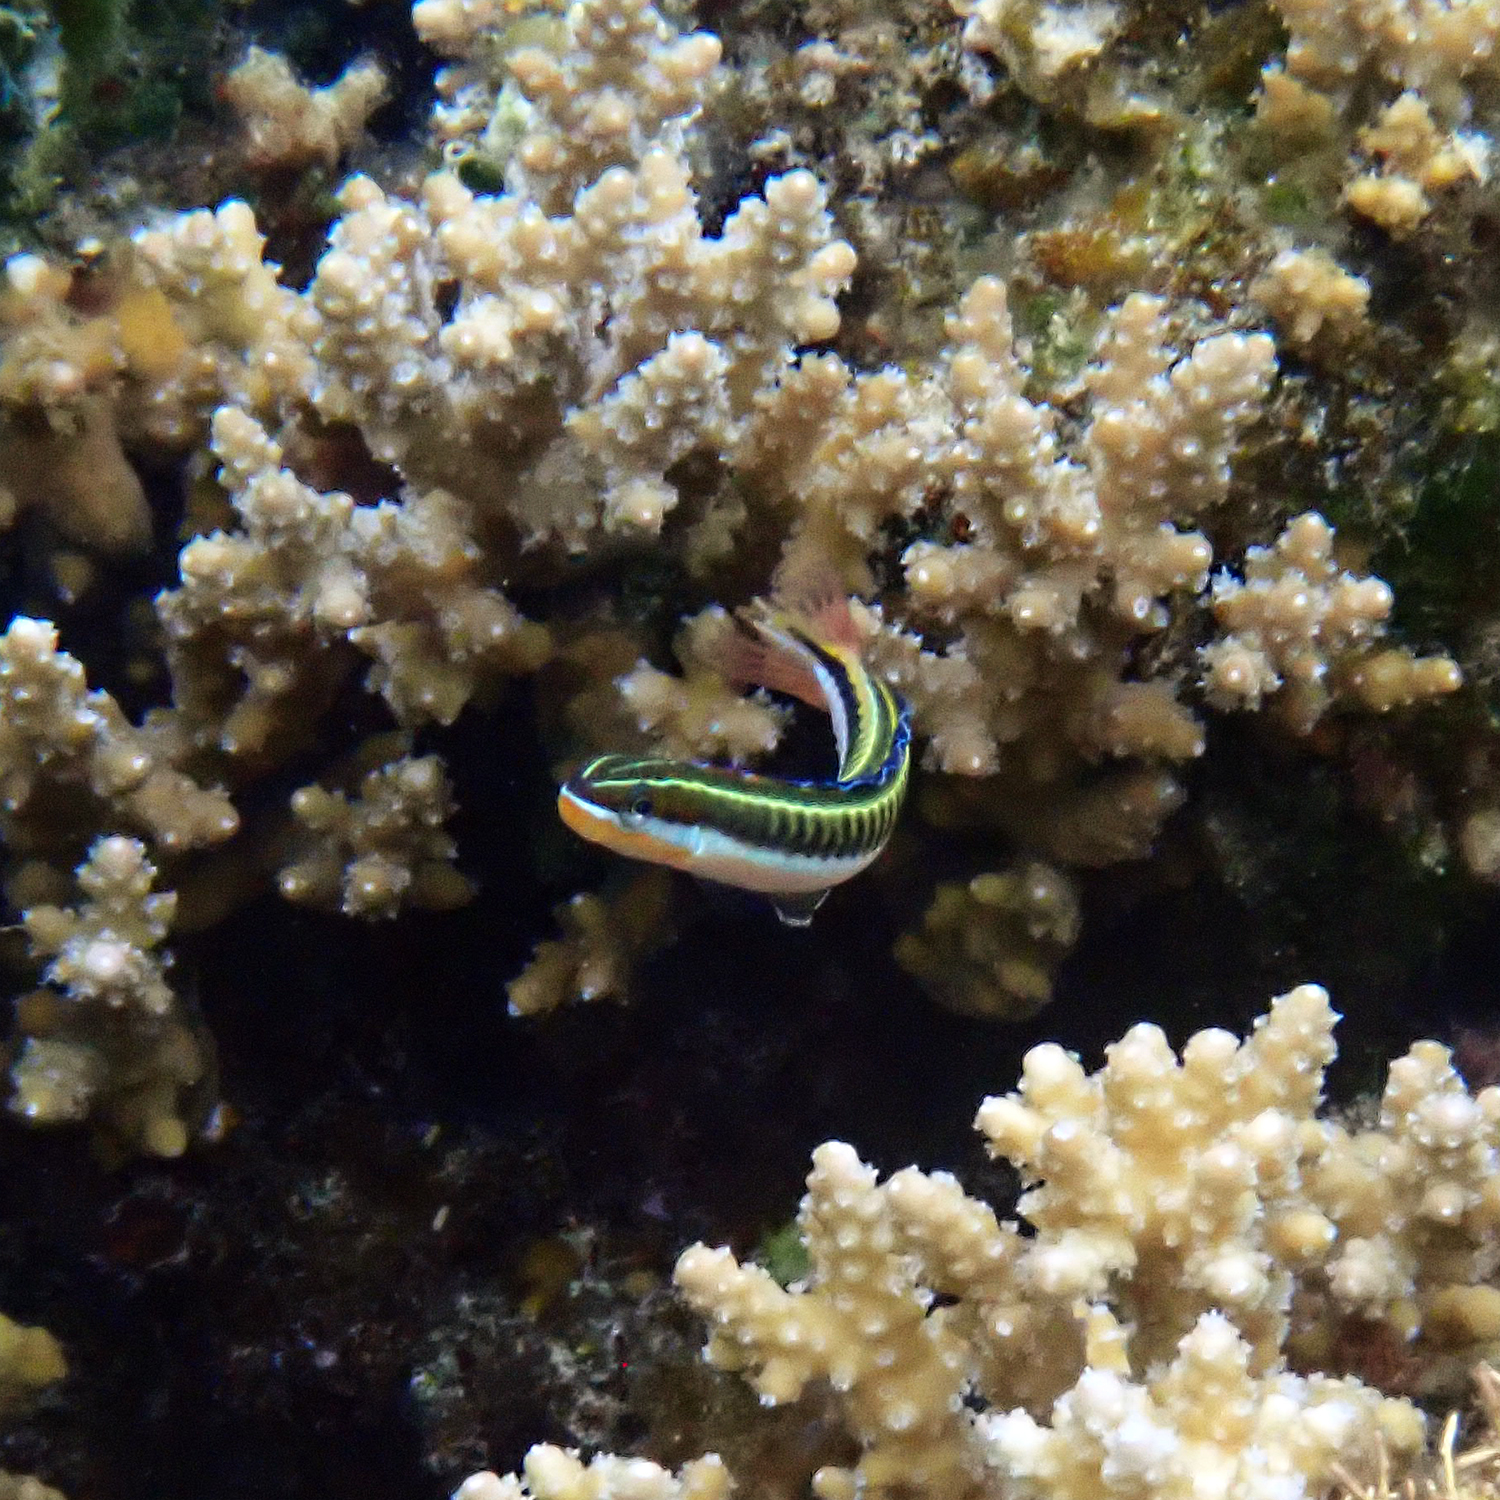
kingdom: Animalia
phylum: Chordata
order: Perciformes
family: Blenniidae
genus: Plagiotremus
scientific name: Plagiotremus tapeinosoma
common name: Hit and run blenny
